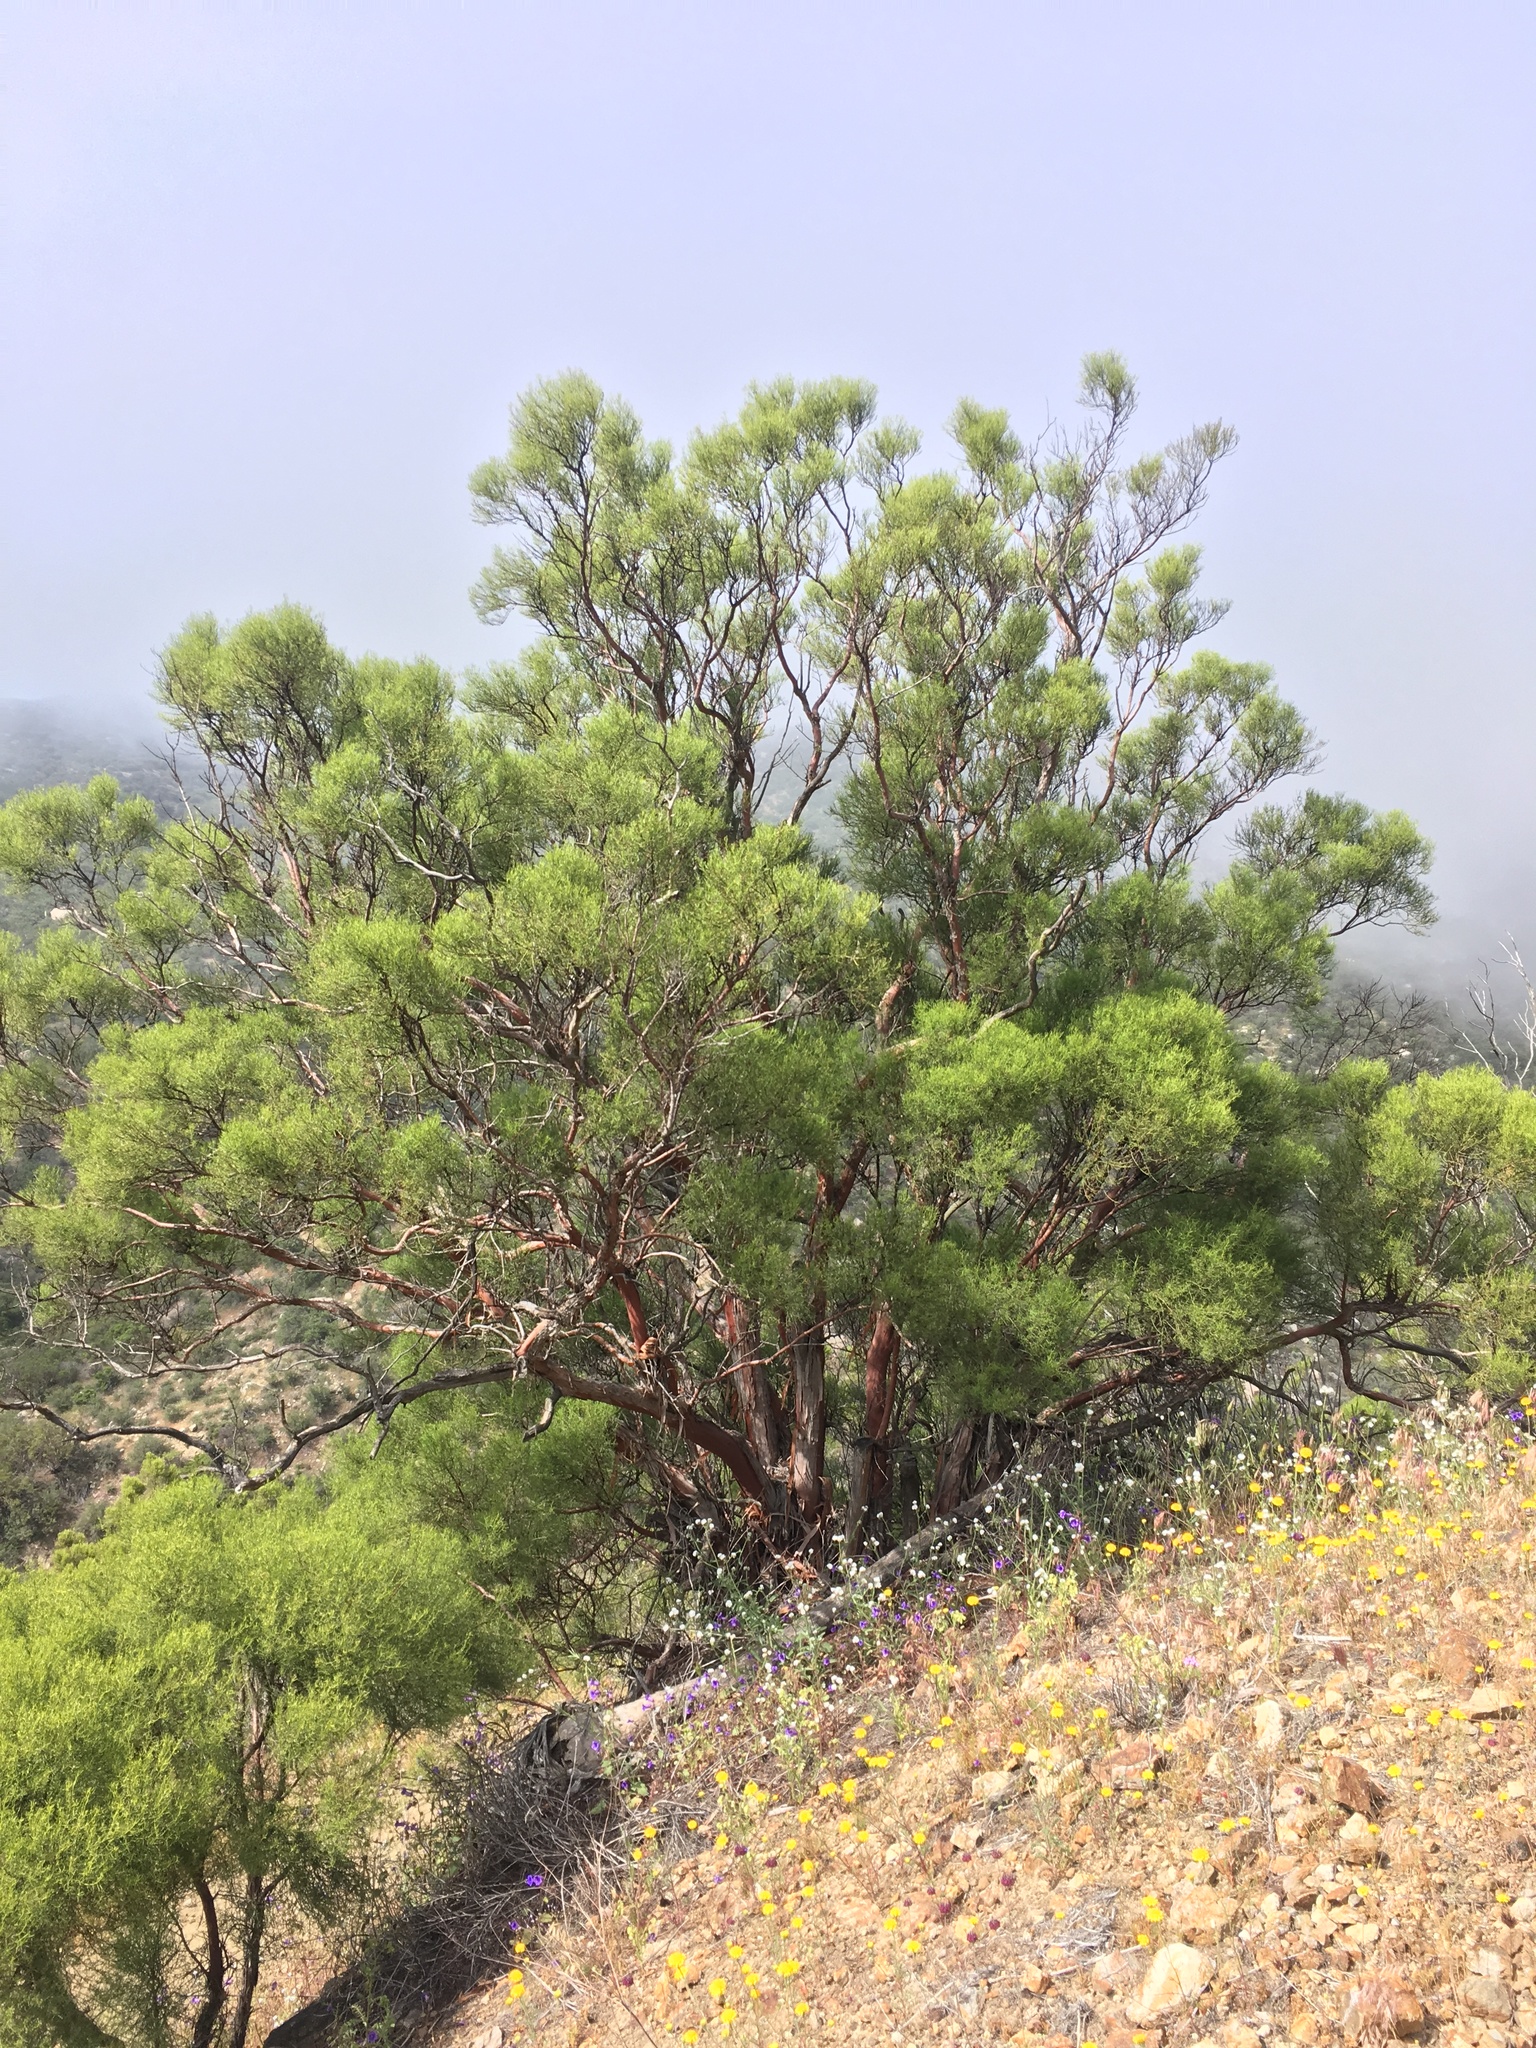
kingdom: Plantae
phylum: Tracheophyta
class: Magnoliopsida
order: Rosales
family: Rosaceae
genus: Adenostoma
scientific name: Adenostoma sparsifolium
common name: Red shank
